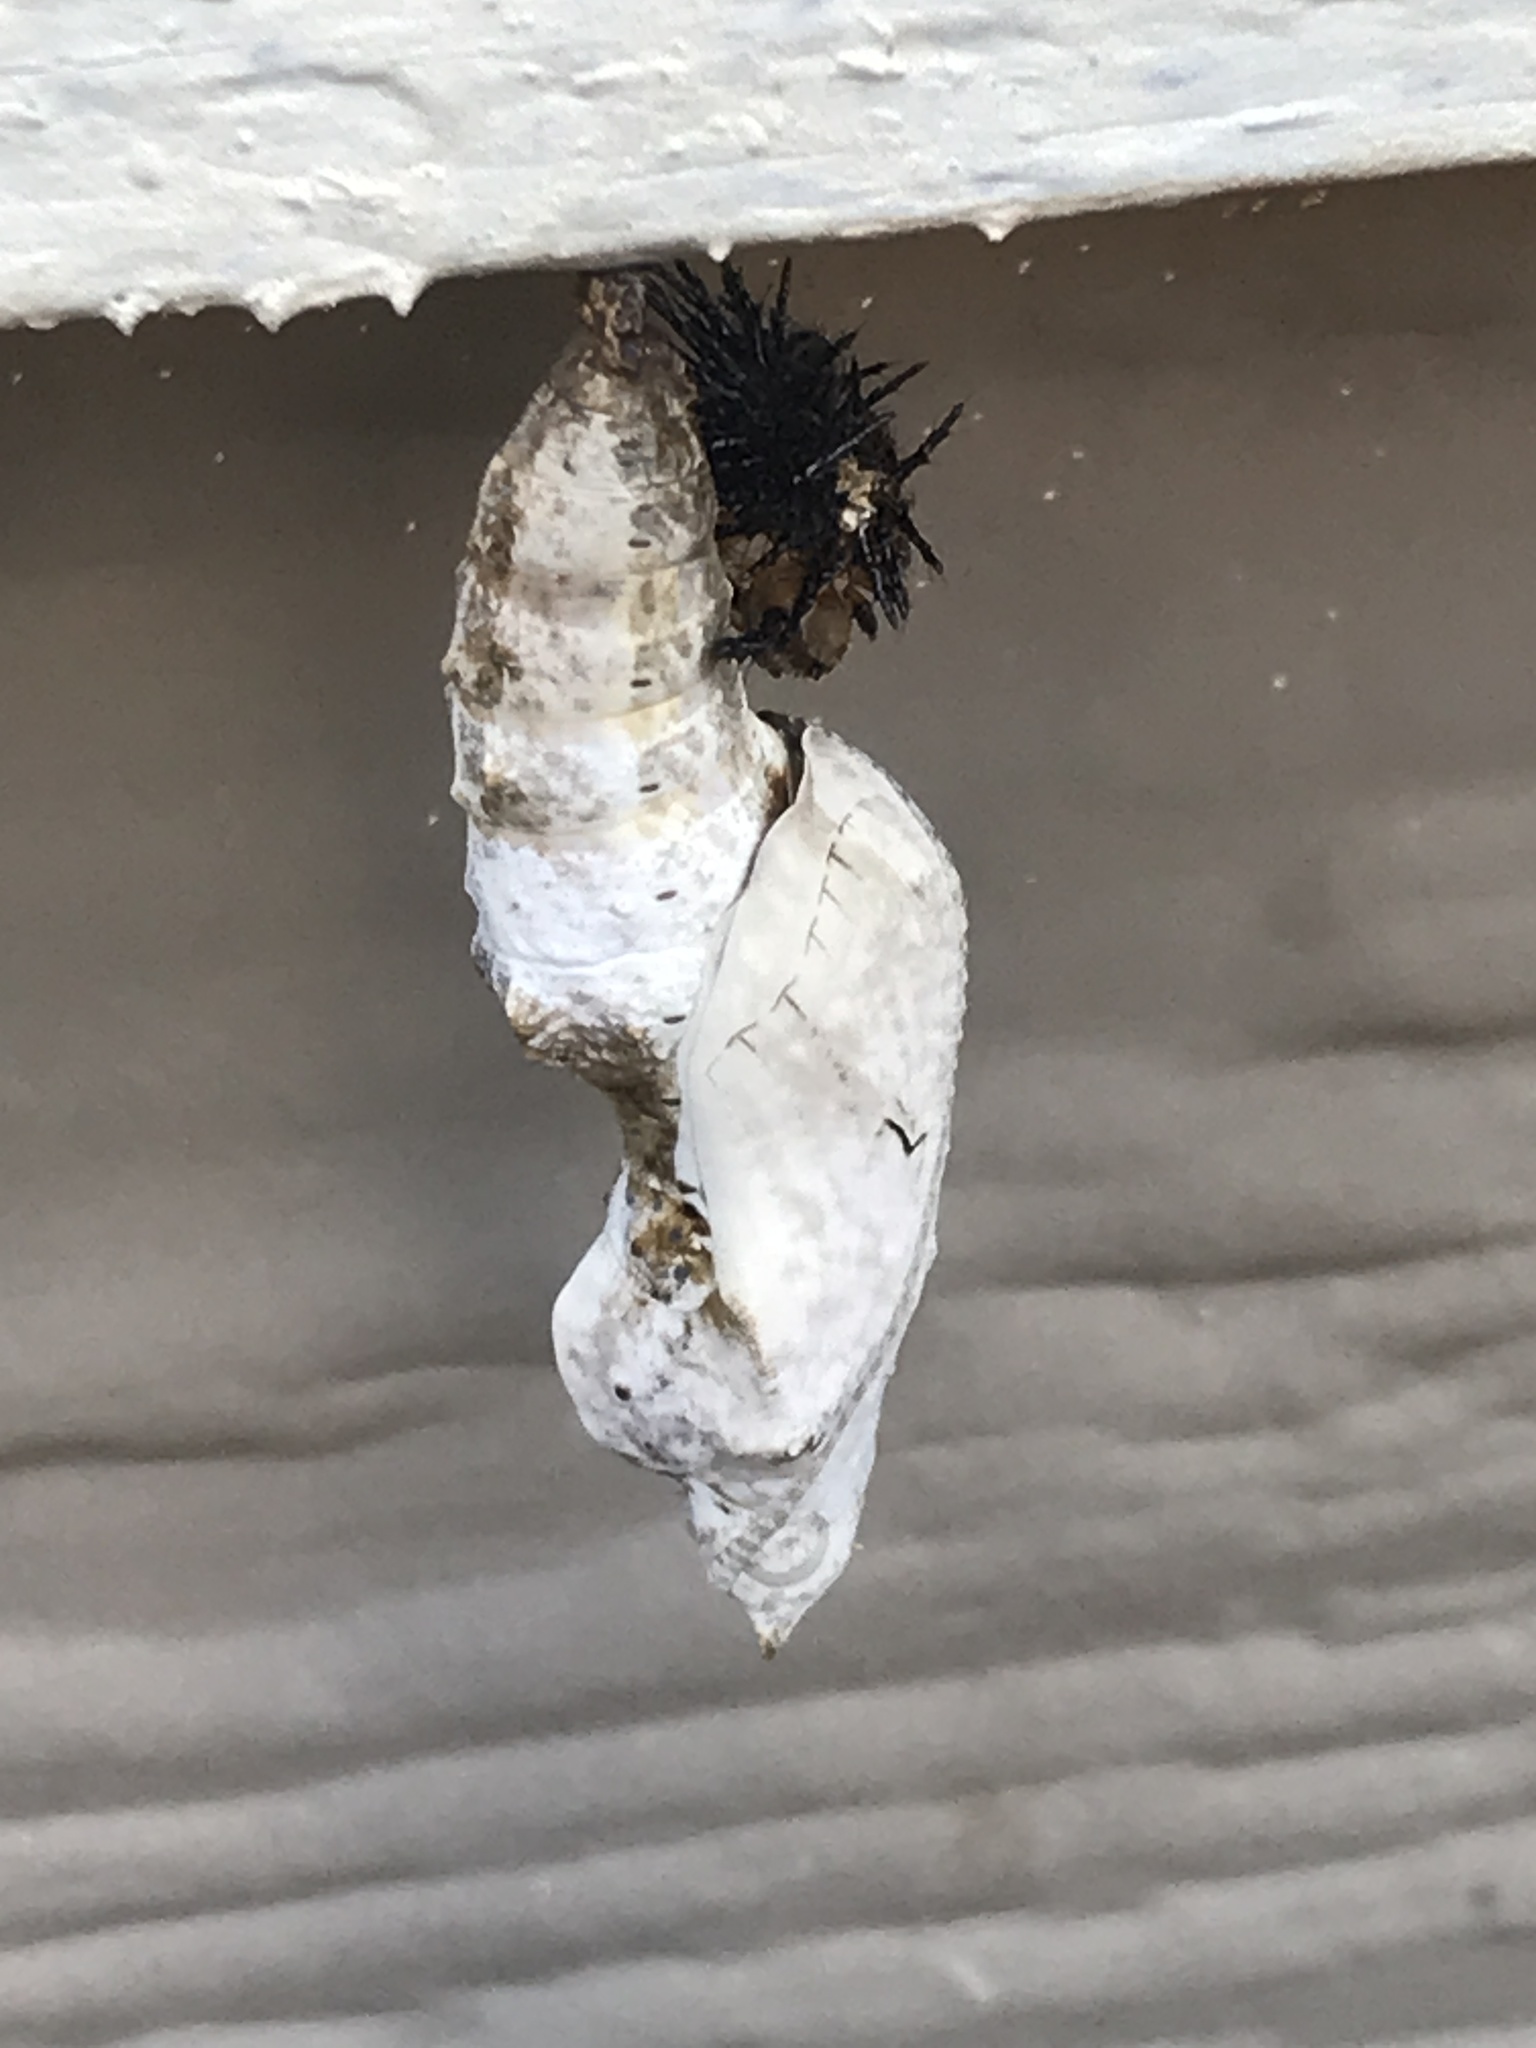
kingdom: Animalia
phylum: Arthropoda
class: Insecta
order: Lepidoptera
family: Nymphalidae
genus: Dione
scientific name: Dione vanillae
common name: Gulf fritillary
